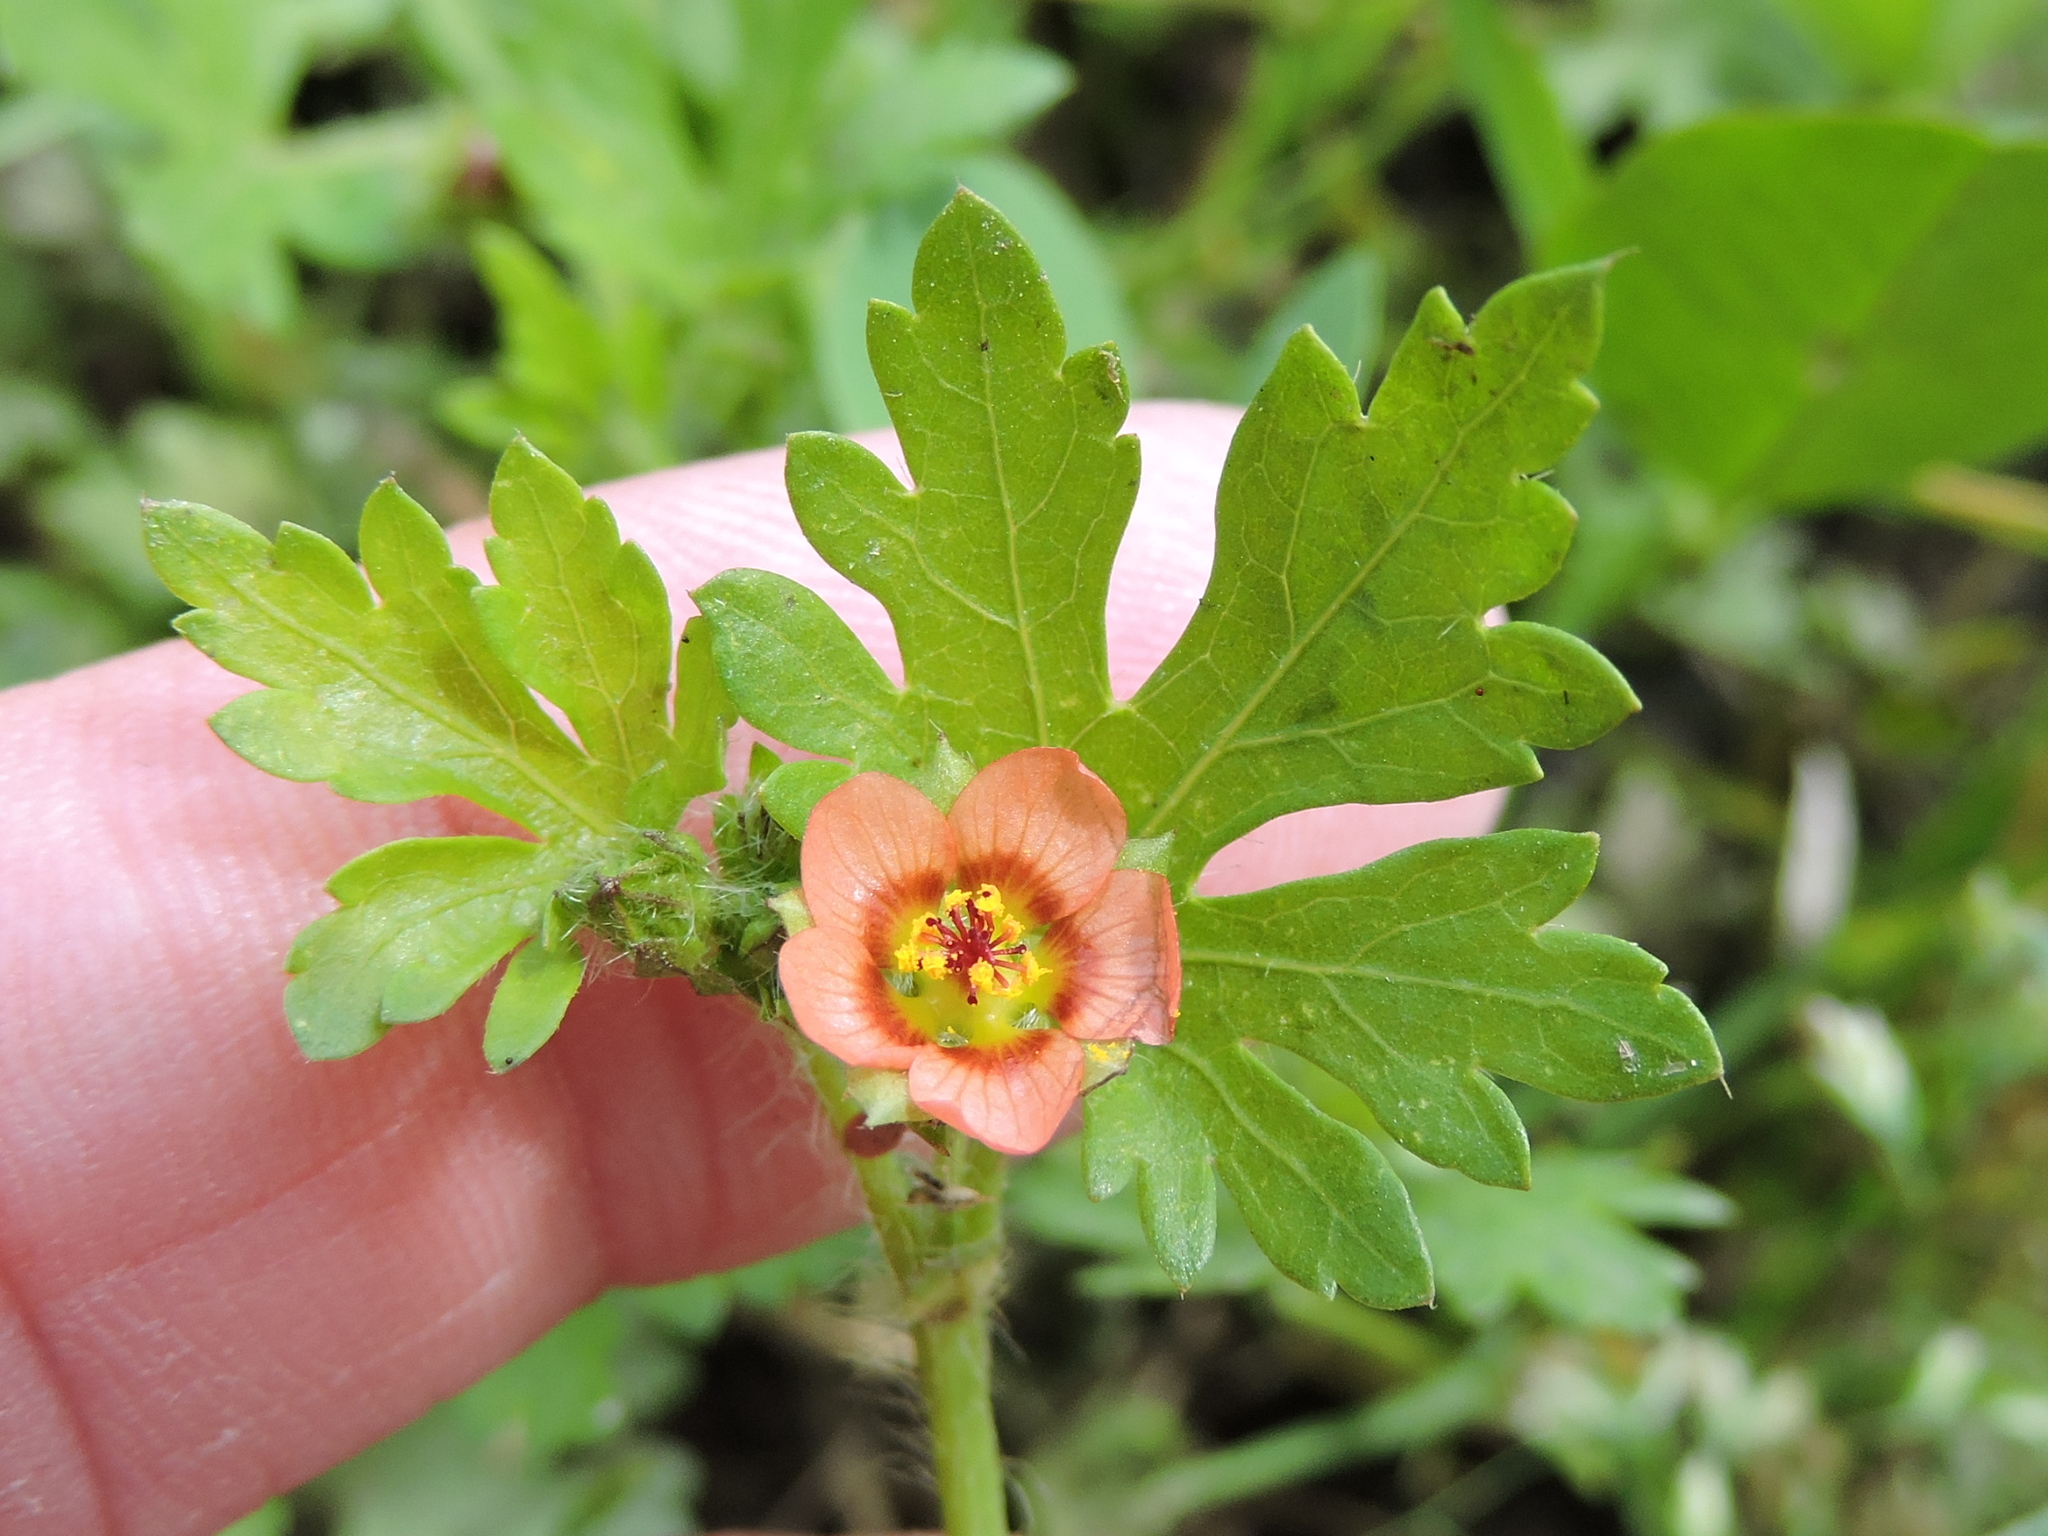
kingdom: Plantae
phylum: Tracheophyta
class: Magnoliopsida
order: Malvales
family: Malvaceae
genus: Modiola
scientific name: Modiola caroliniana
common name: Carolina bristlemallow
